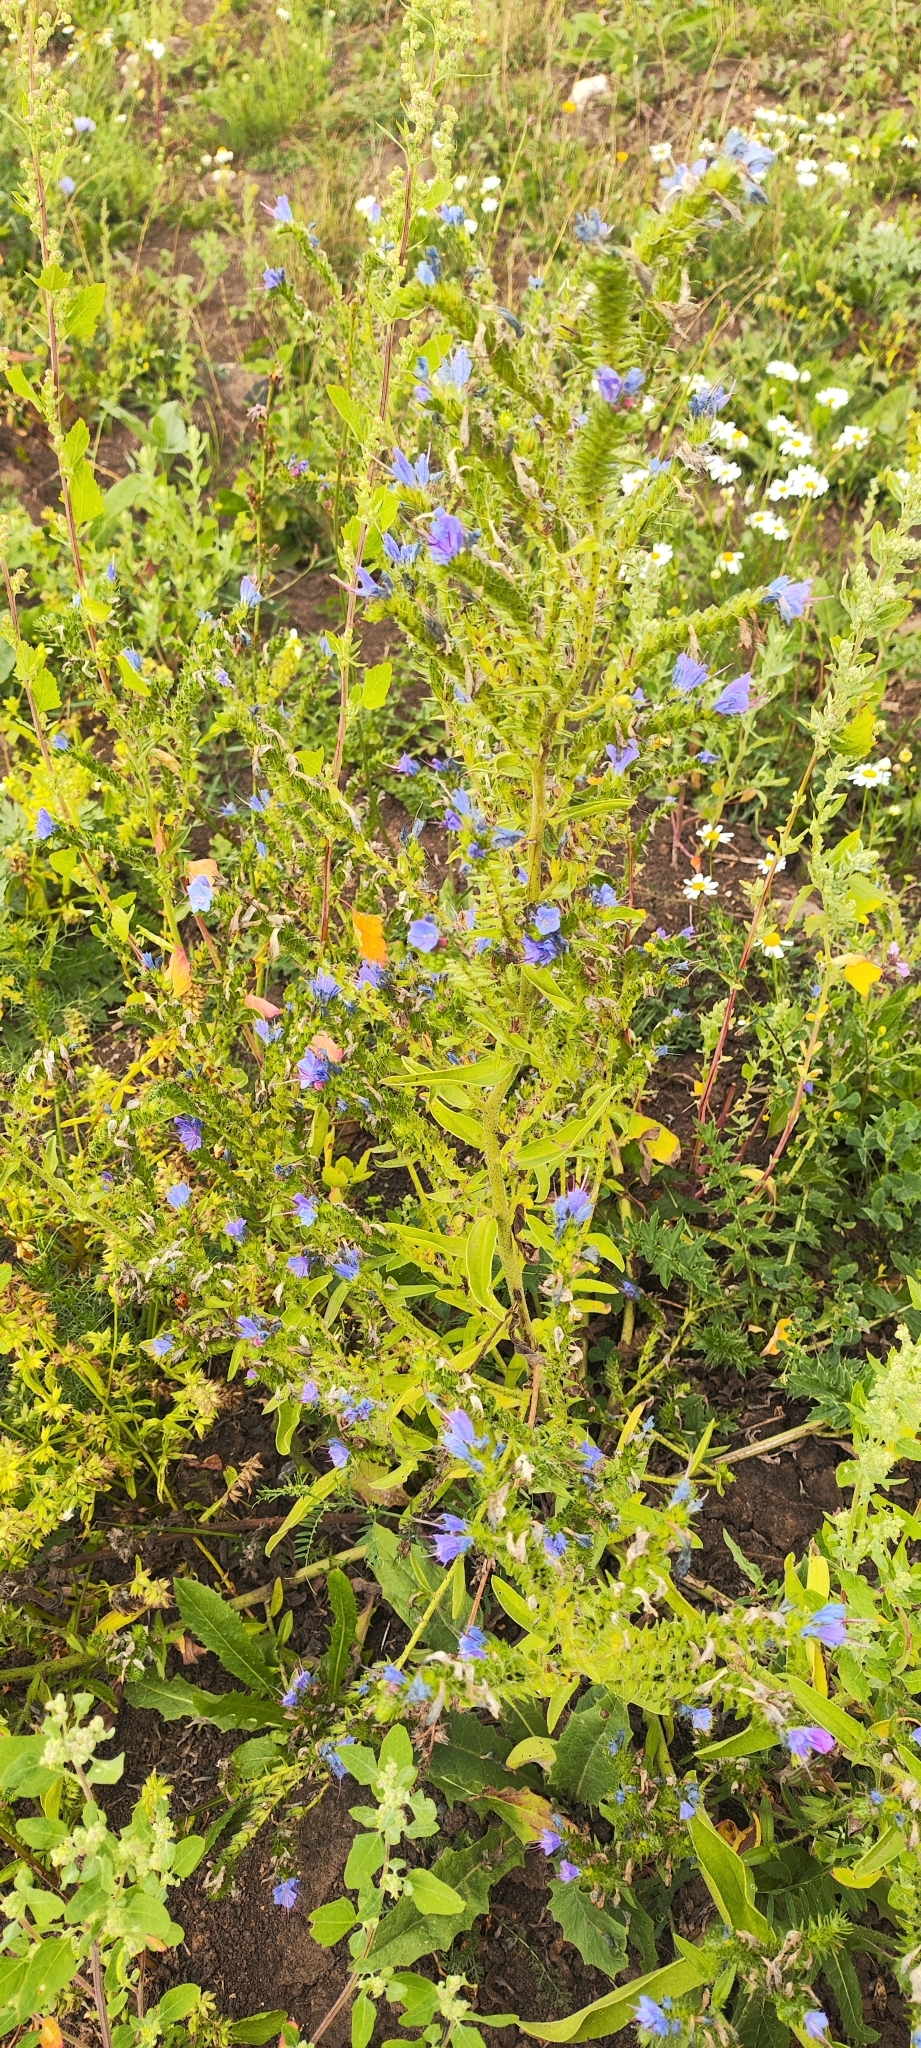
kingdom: Plantae
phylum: Tracheophyta
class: Magnoliopsida
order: Boraginales
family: Boraginaceae
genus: Echium
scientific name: Echium vulgare
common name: Common viper's bugloss
